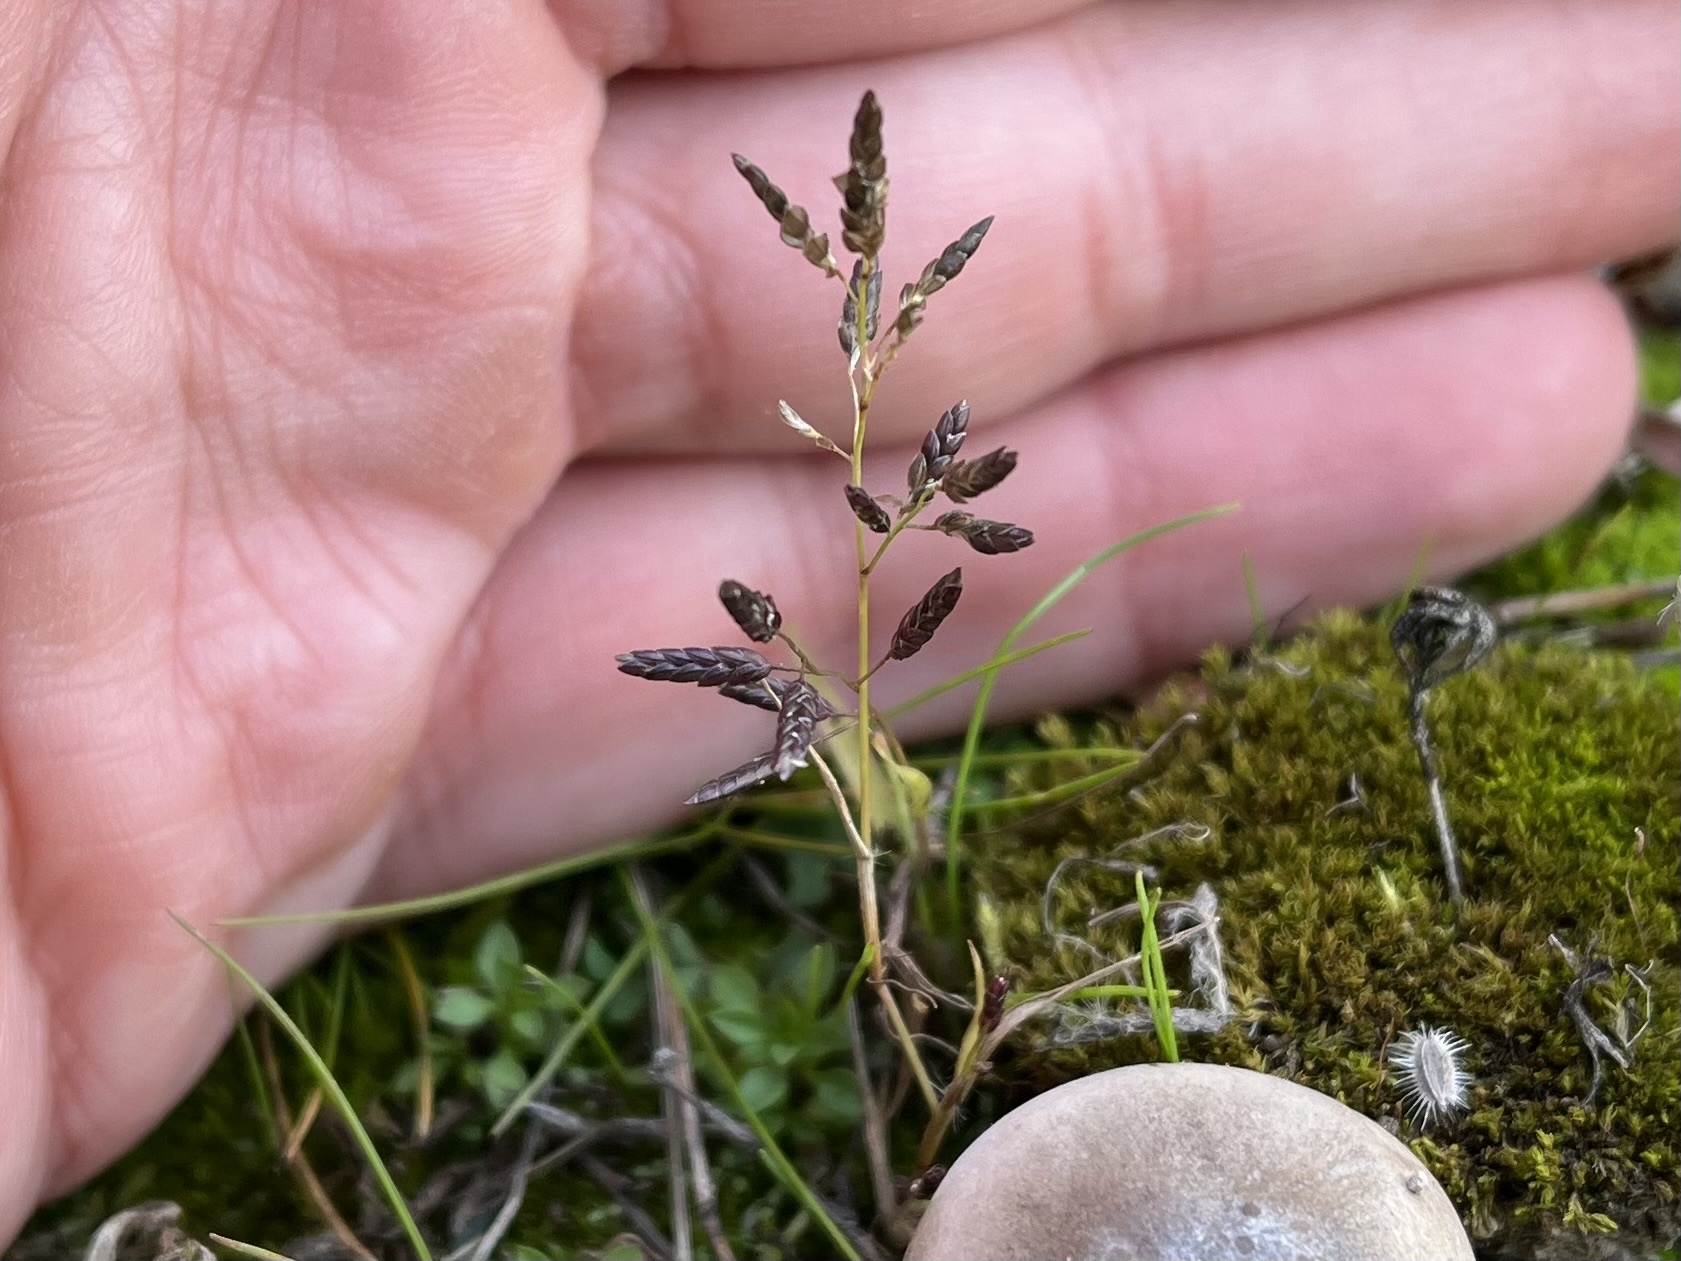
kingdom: Plantae
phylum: Tracheophyta
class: Liliopsida
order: Poales
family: Poaceae
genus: Eragrostis
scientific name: Eragrostis minor
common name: Small love-grass
